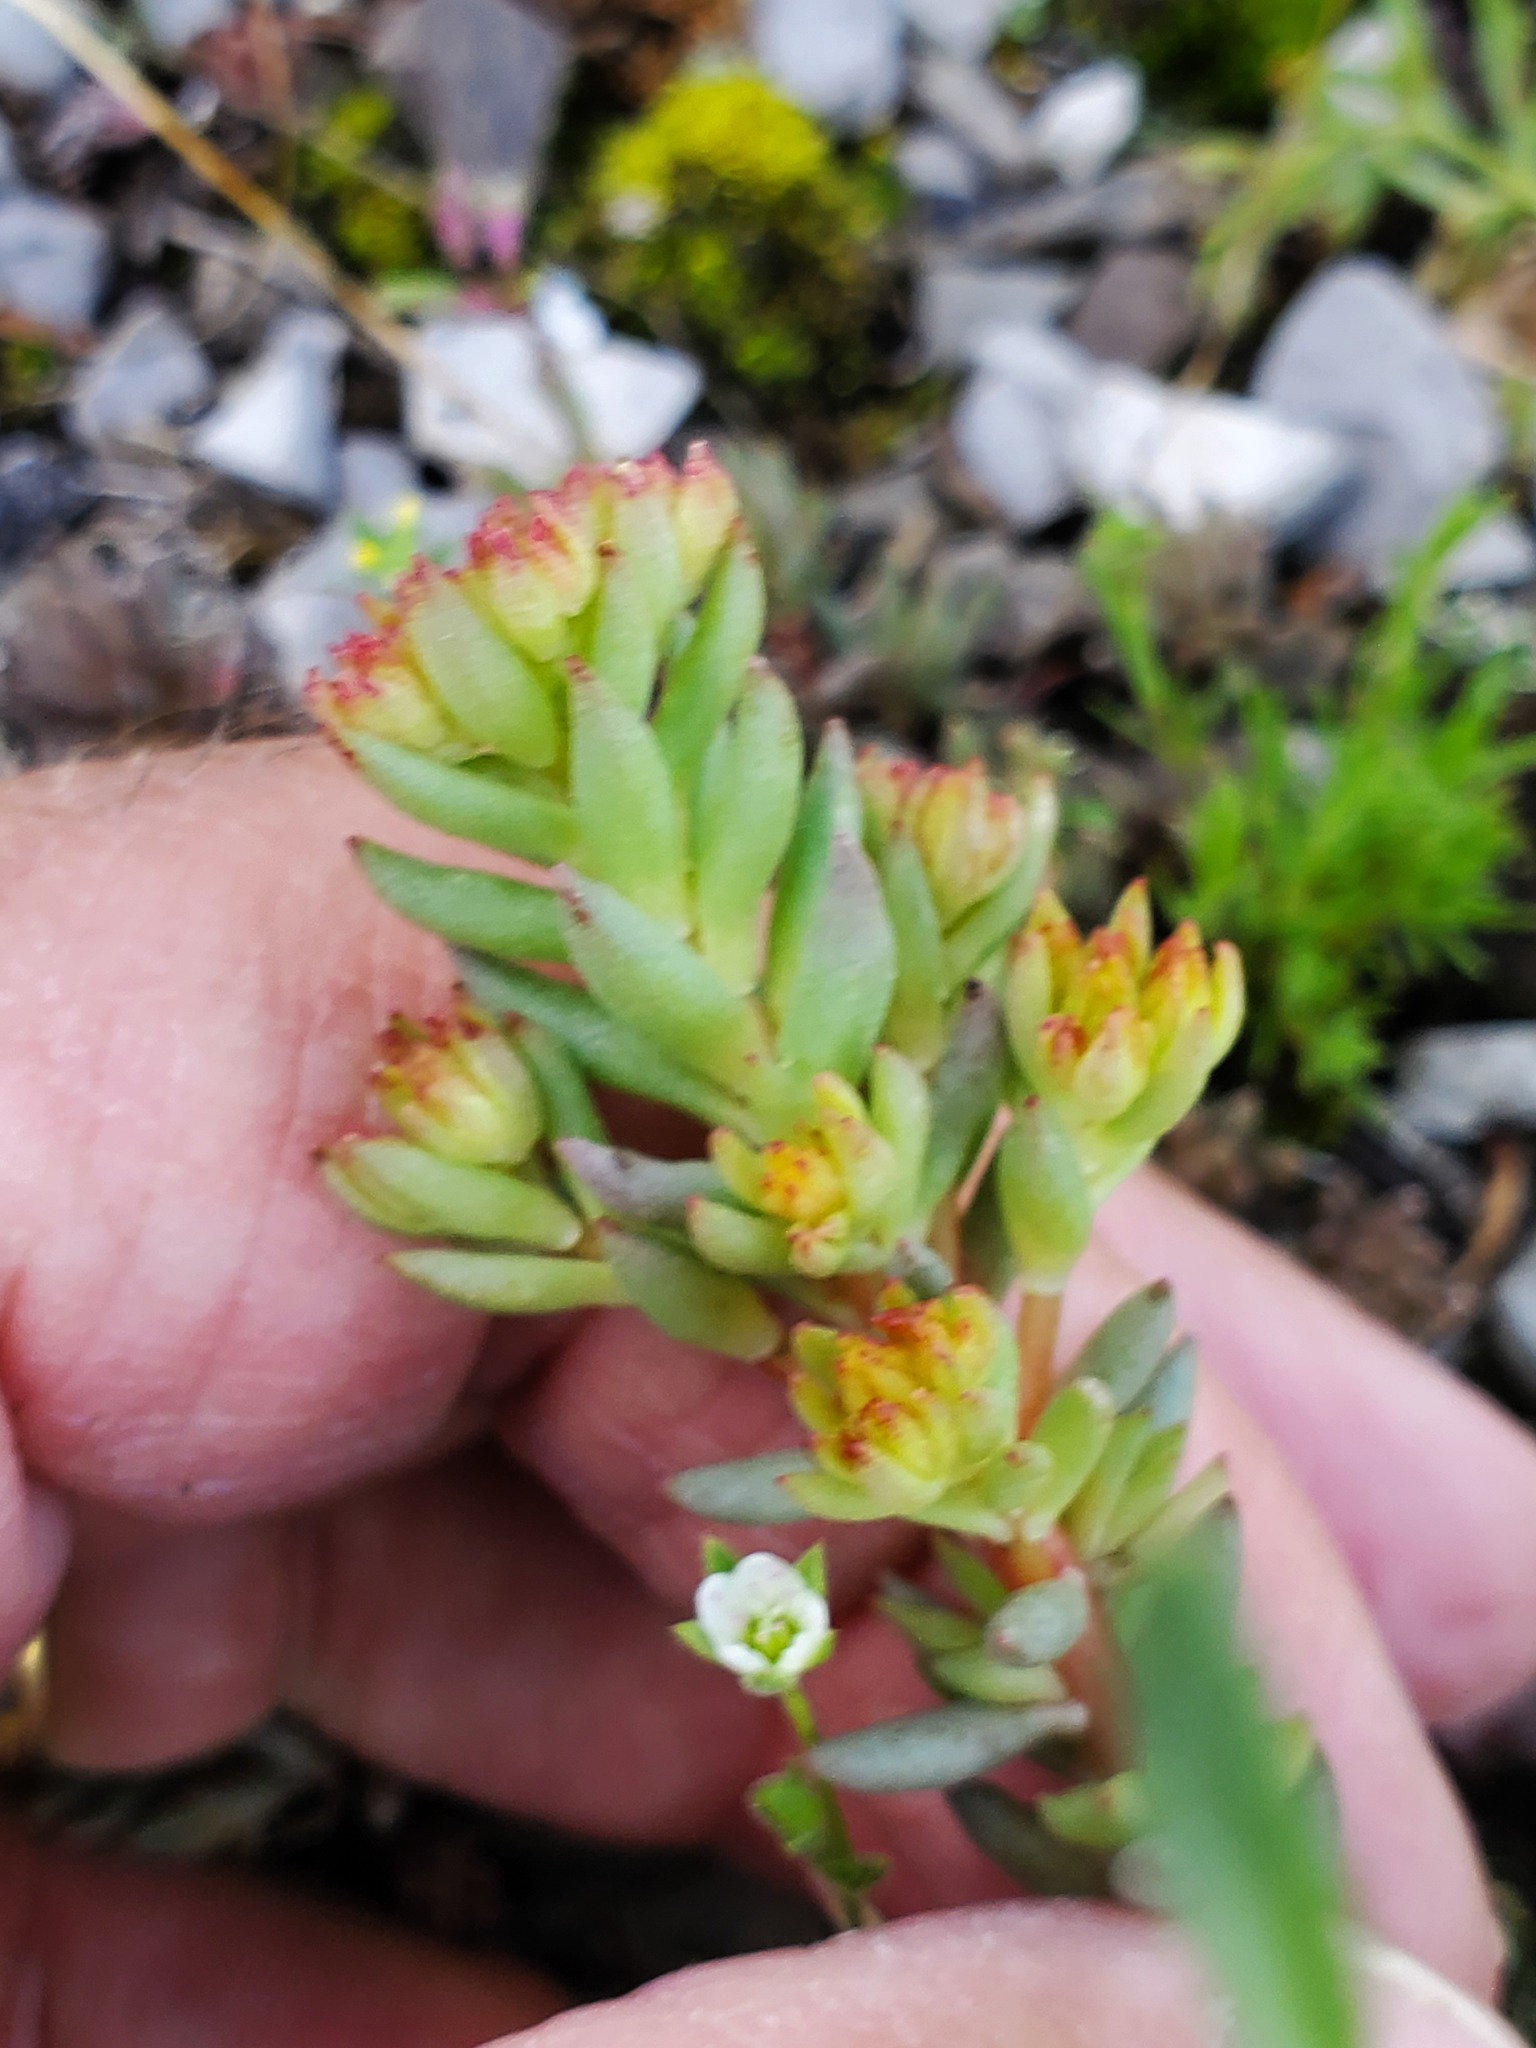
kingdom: Plantae
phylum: Tracheophyta
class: Magnoliopsida
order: Saxifragales
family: Crassulaceae
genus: Sedum
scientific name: Sedum lanceolatum
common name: Common stonecrop
